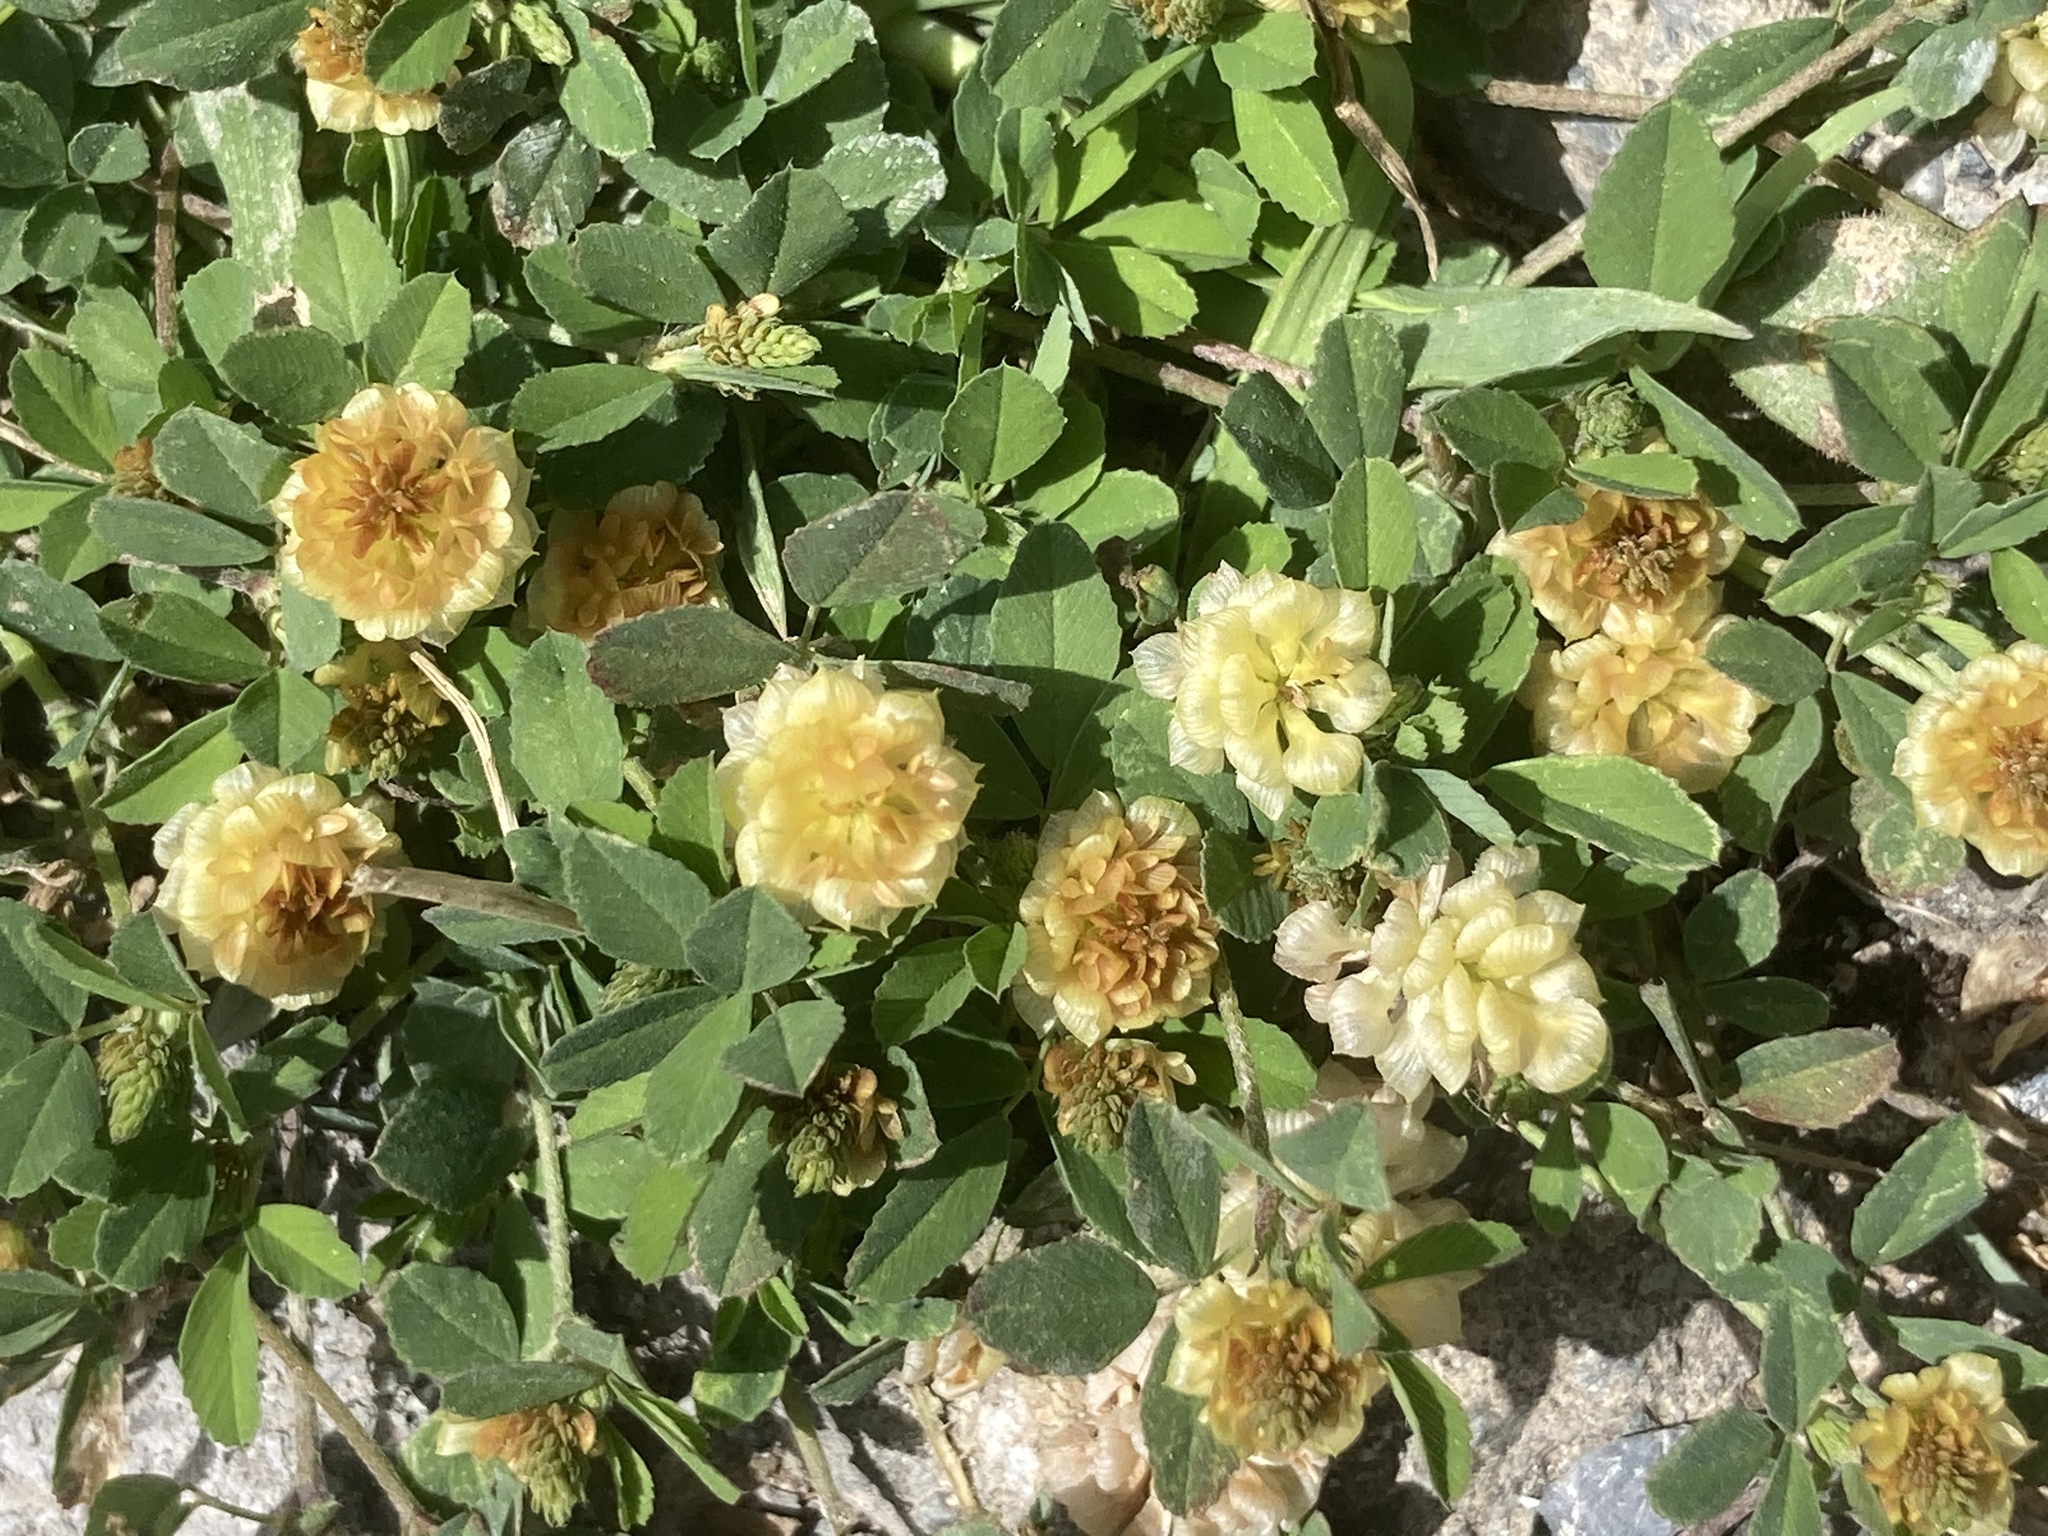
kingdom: Plantae
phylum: Tracheophyta
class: Magnoliopsida
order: Fabales
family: Fabaceae
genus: Trifolium
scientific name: Trifolium campestre
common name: Field clover
